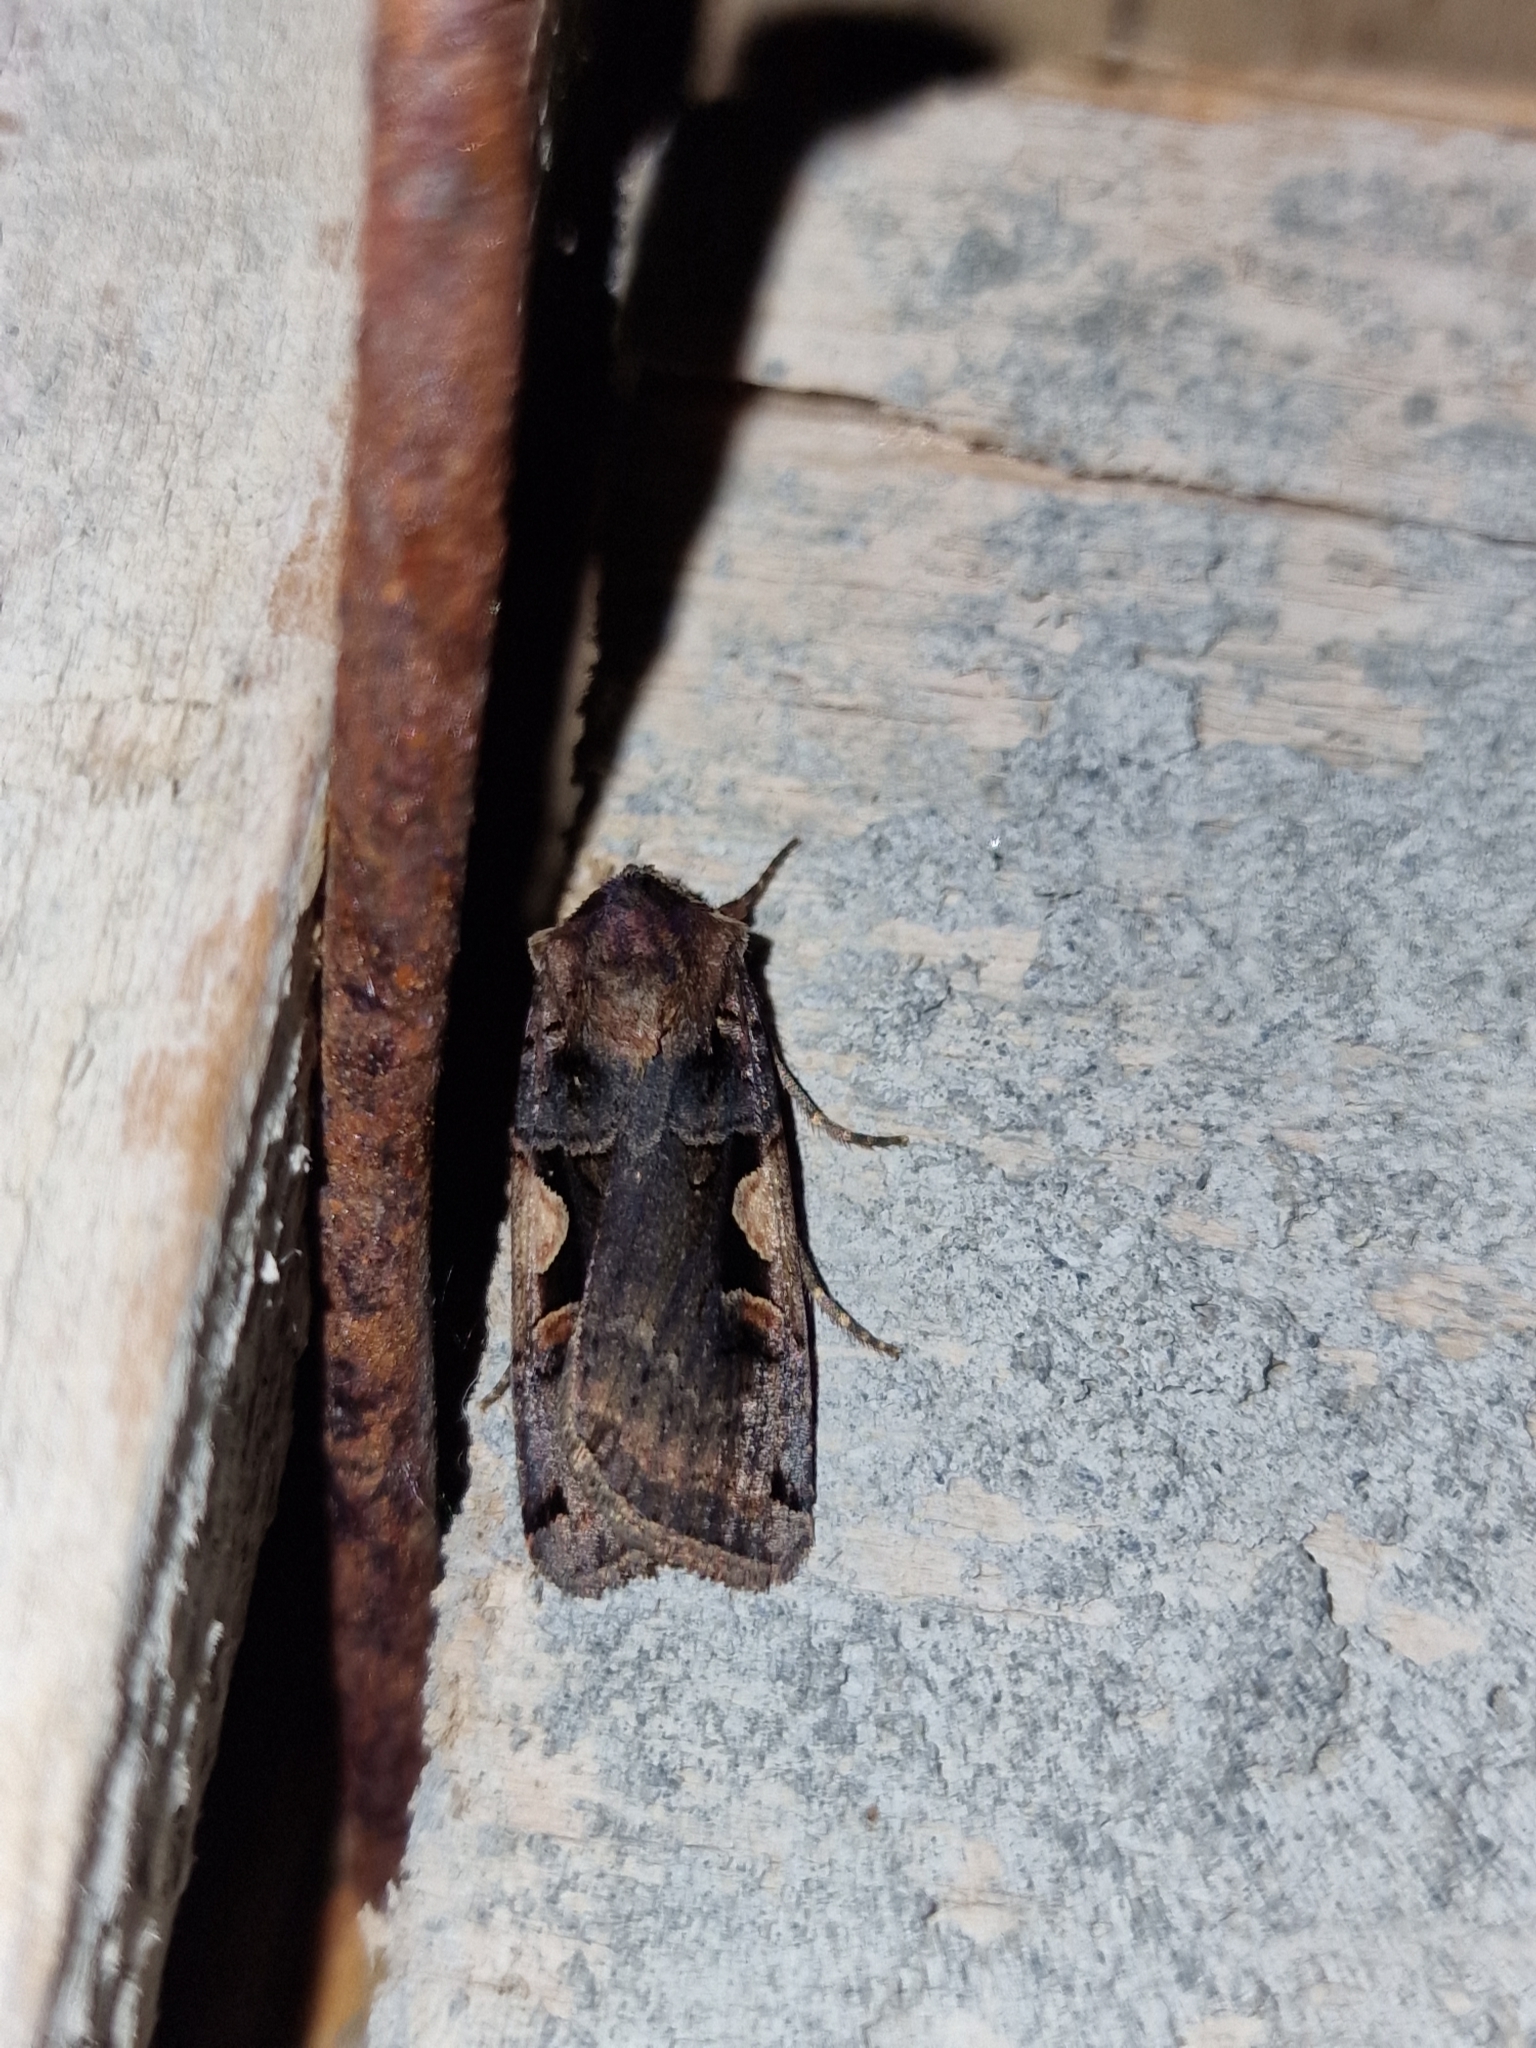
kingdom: Animalia
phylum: Arthropoda
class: Insecta
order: Lepidoptera
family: Noctuidae
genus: Xestia
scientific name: Xestia c-nigrum
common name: Setaceous hebrew character
